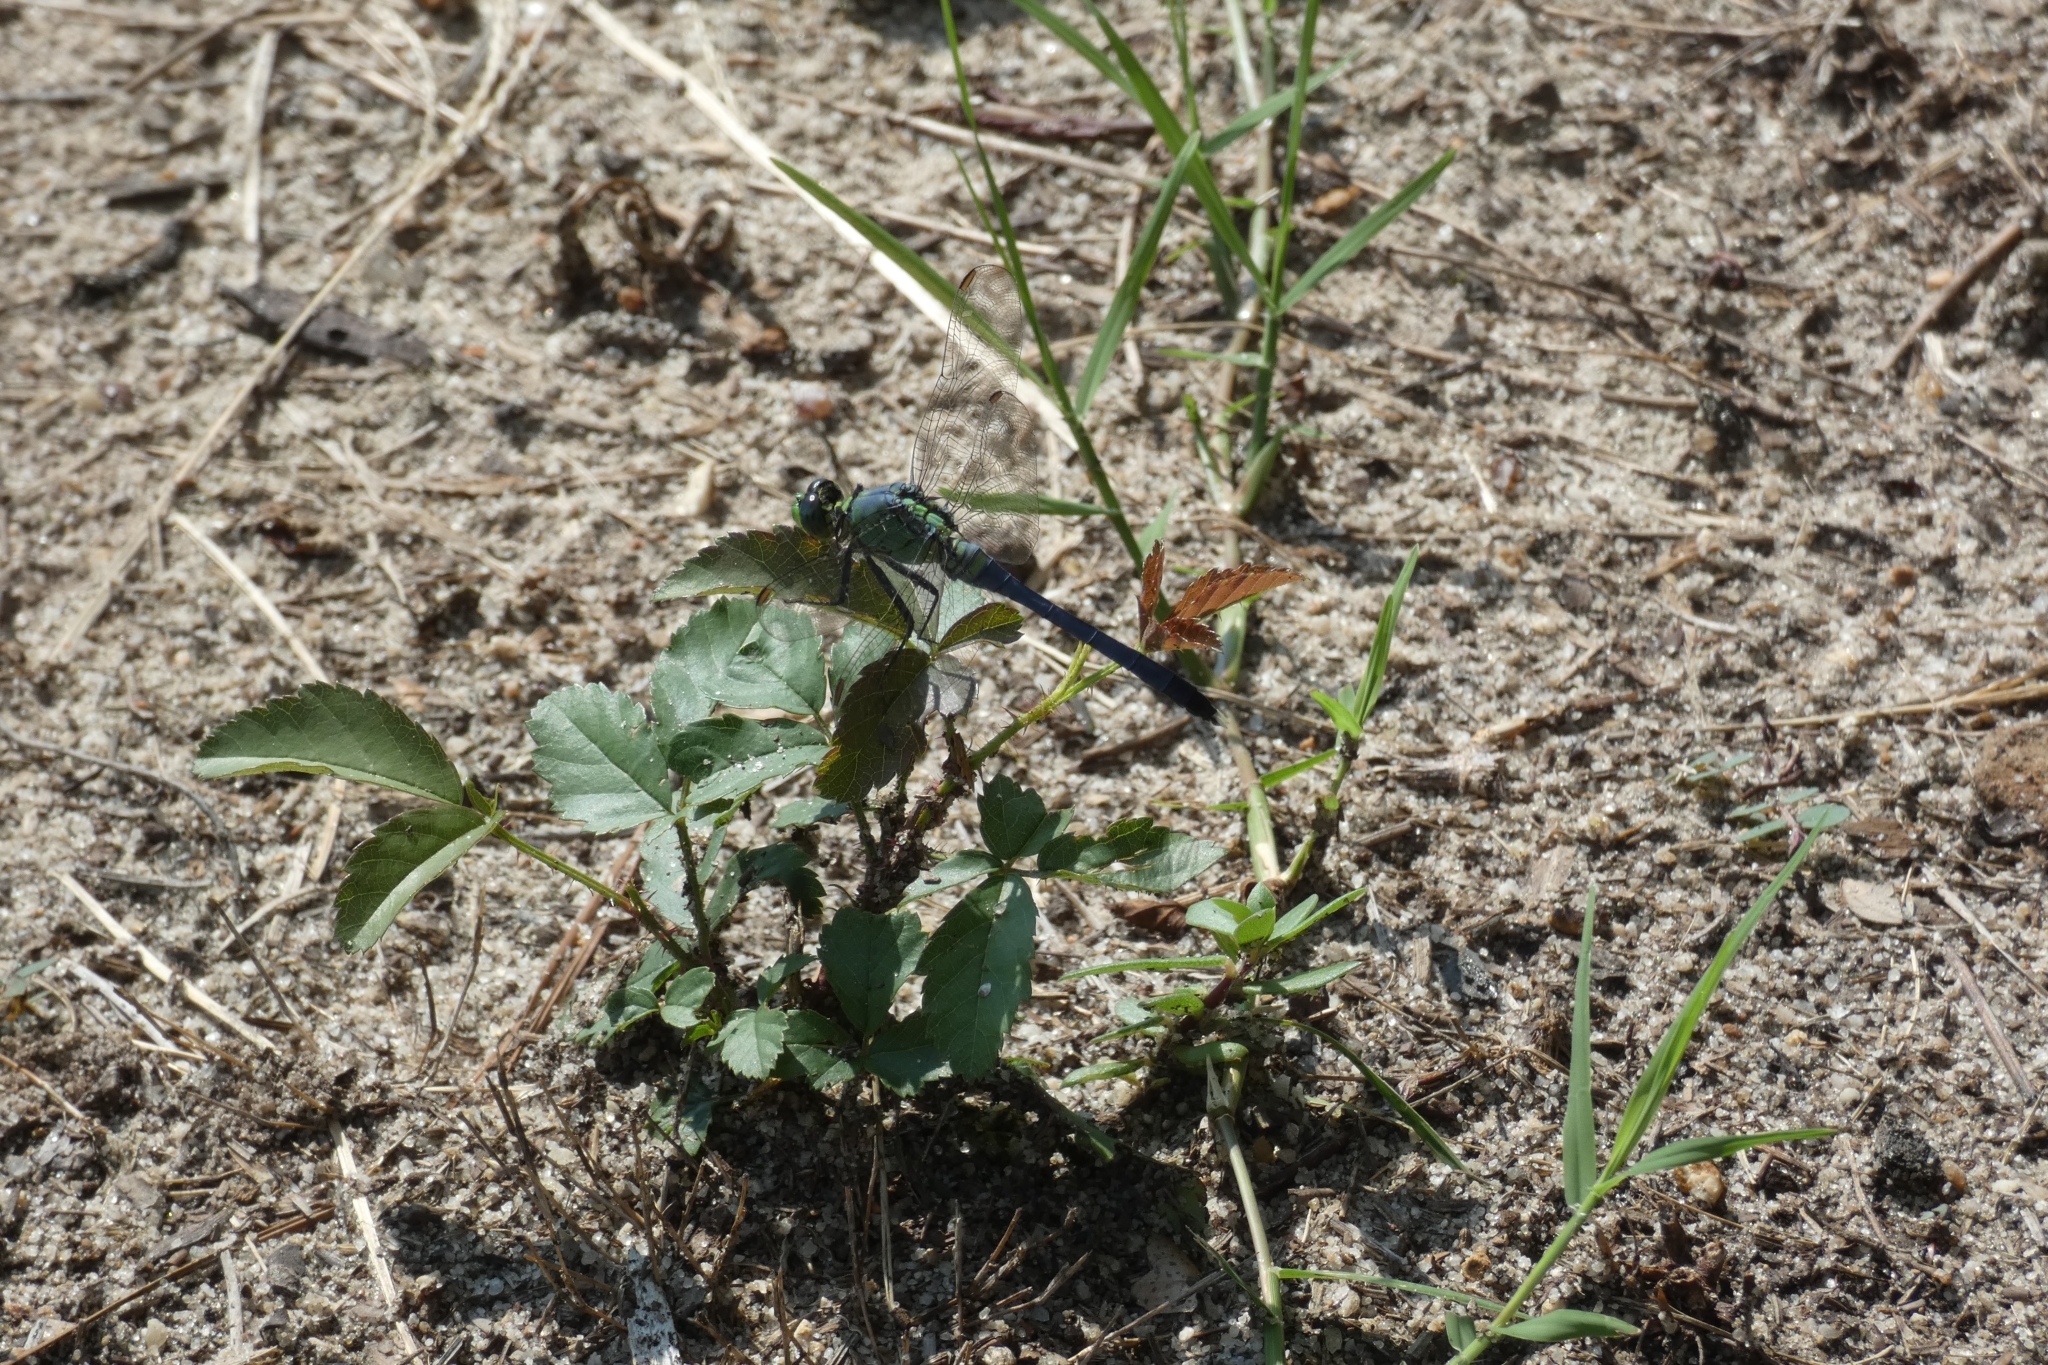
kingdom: Animalia
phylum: Arthropoda
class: Insecta
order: Odonata
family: Libellulidae
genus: Erythemis
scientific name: Erythemis simplicicollis
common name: Eastern pondhawk
